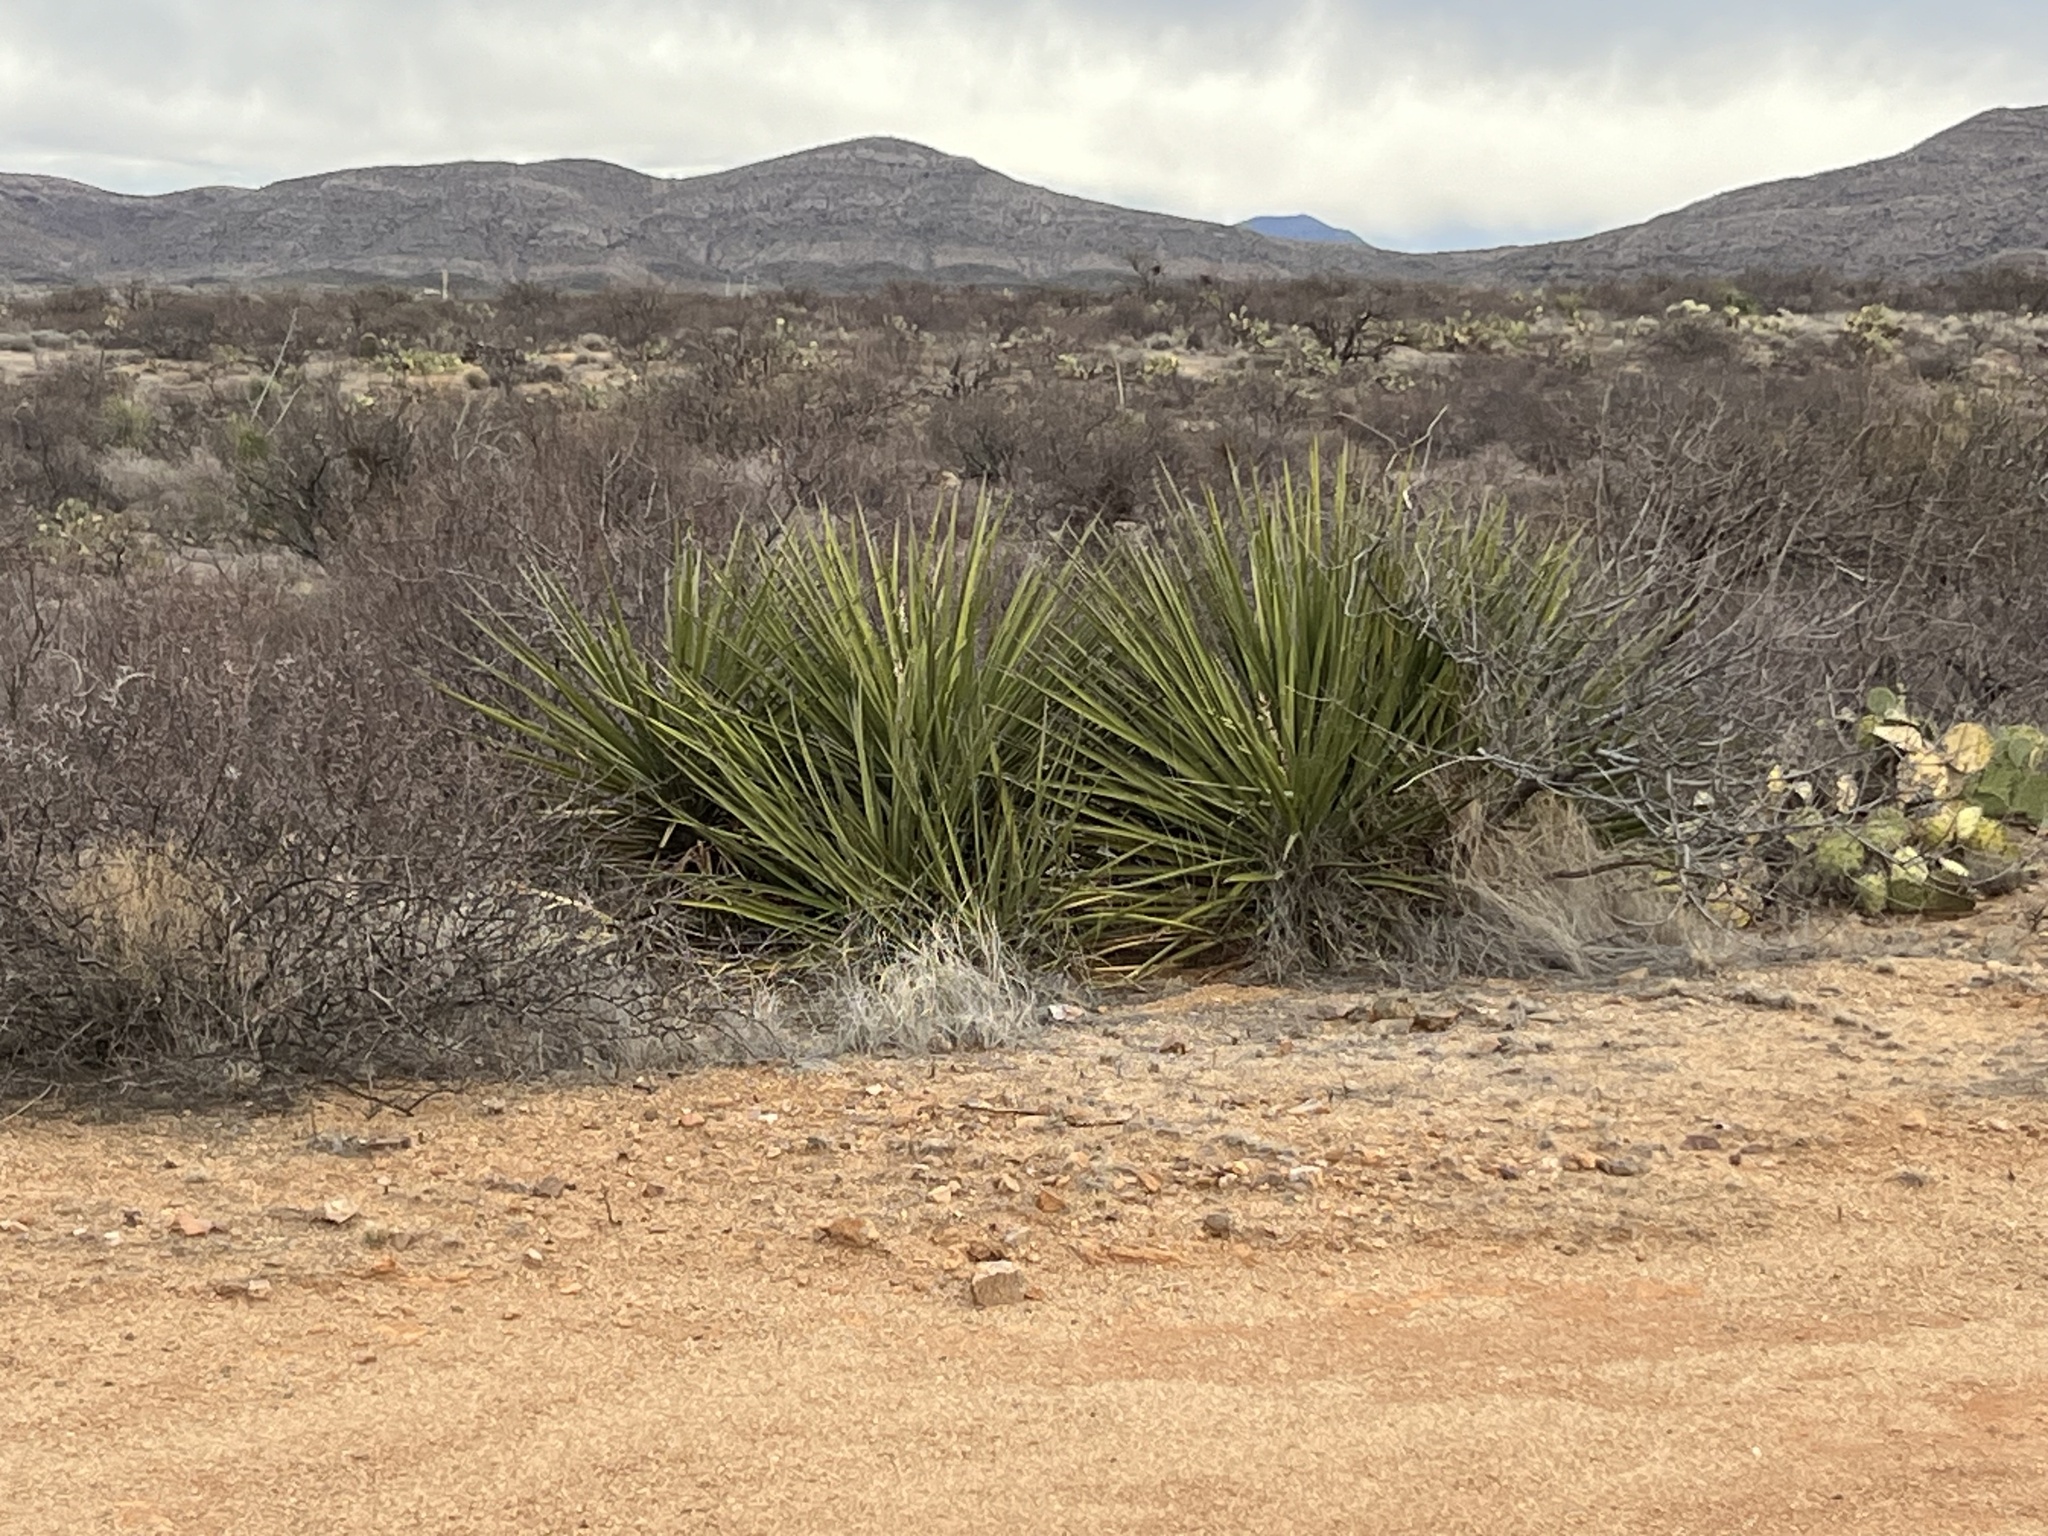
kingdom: Plantae
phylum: Tracheophyta
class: Liliopsida
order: Asparagales
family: Asparagaceae
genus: Yucca
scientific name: Yucca baccata
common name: Banana yucca
